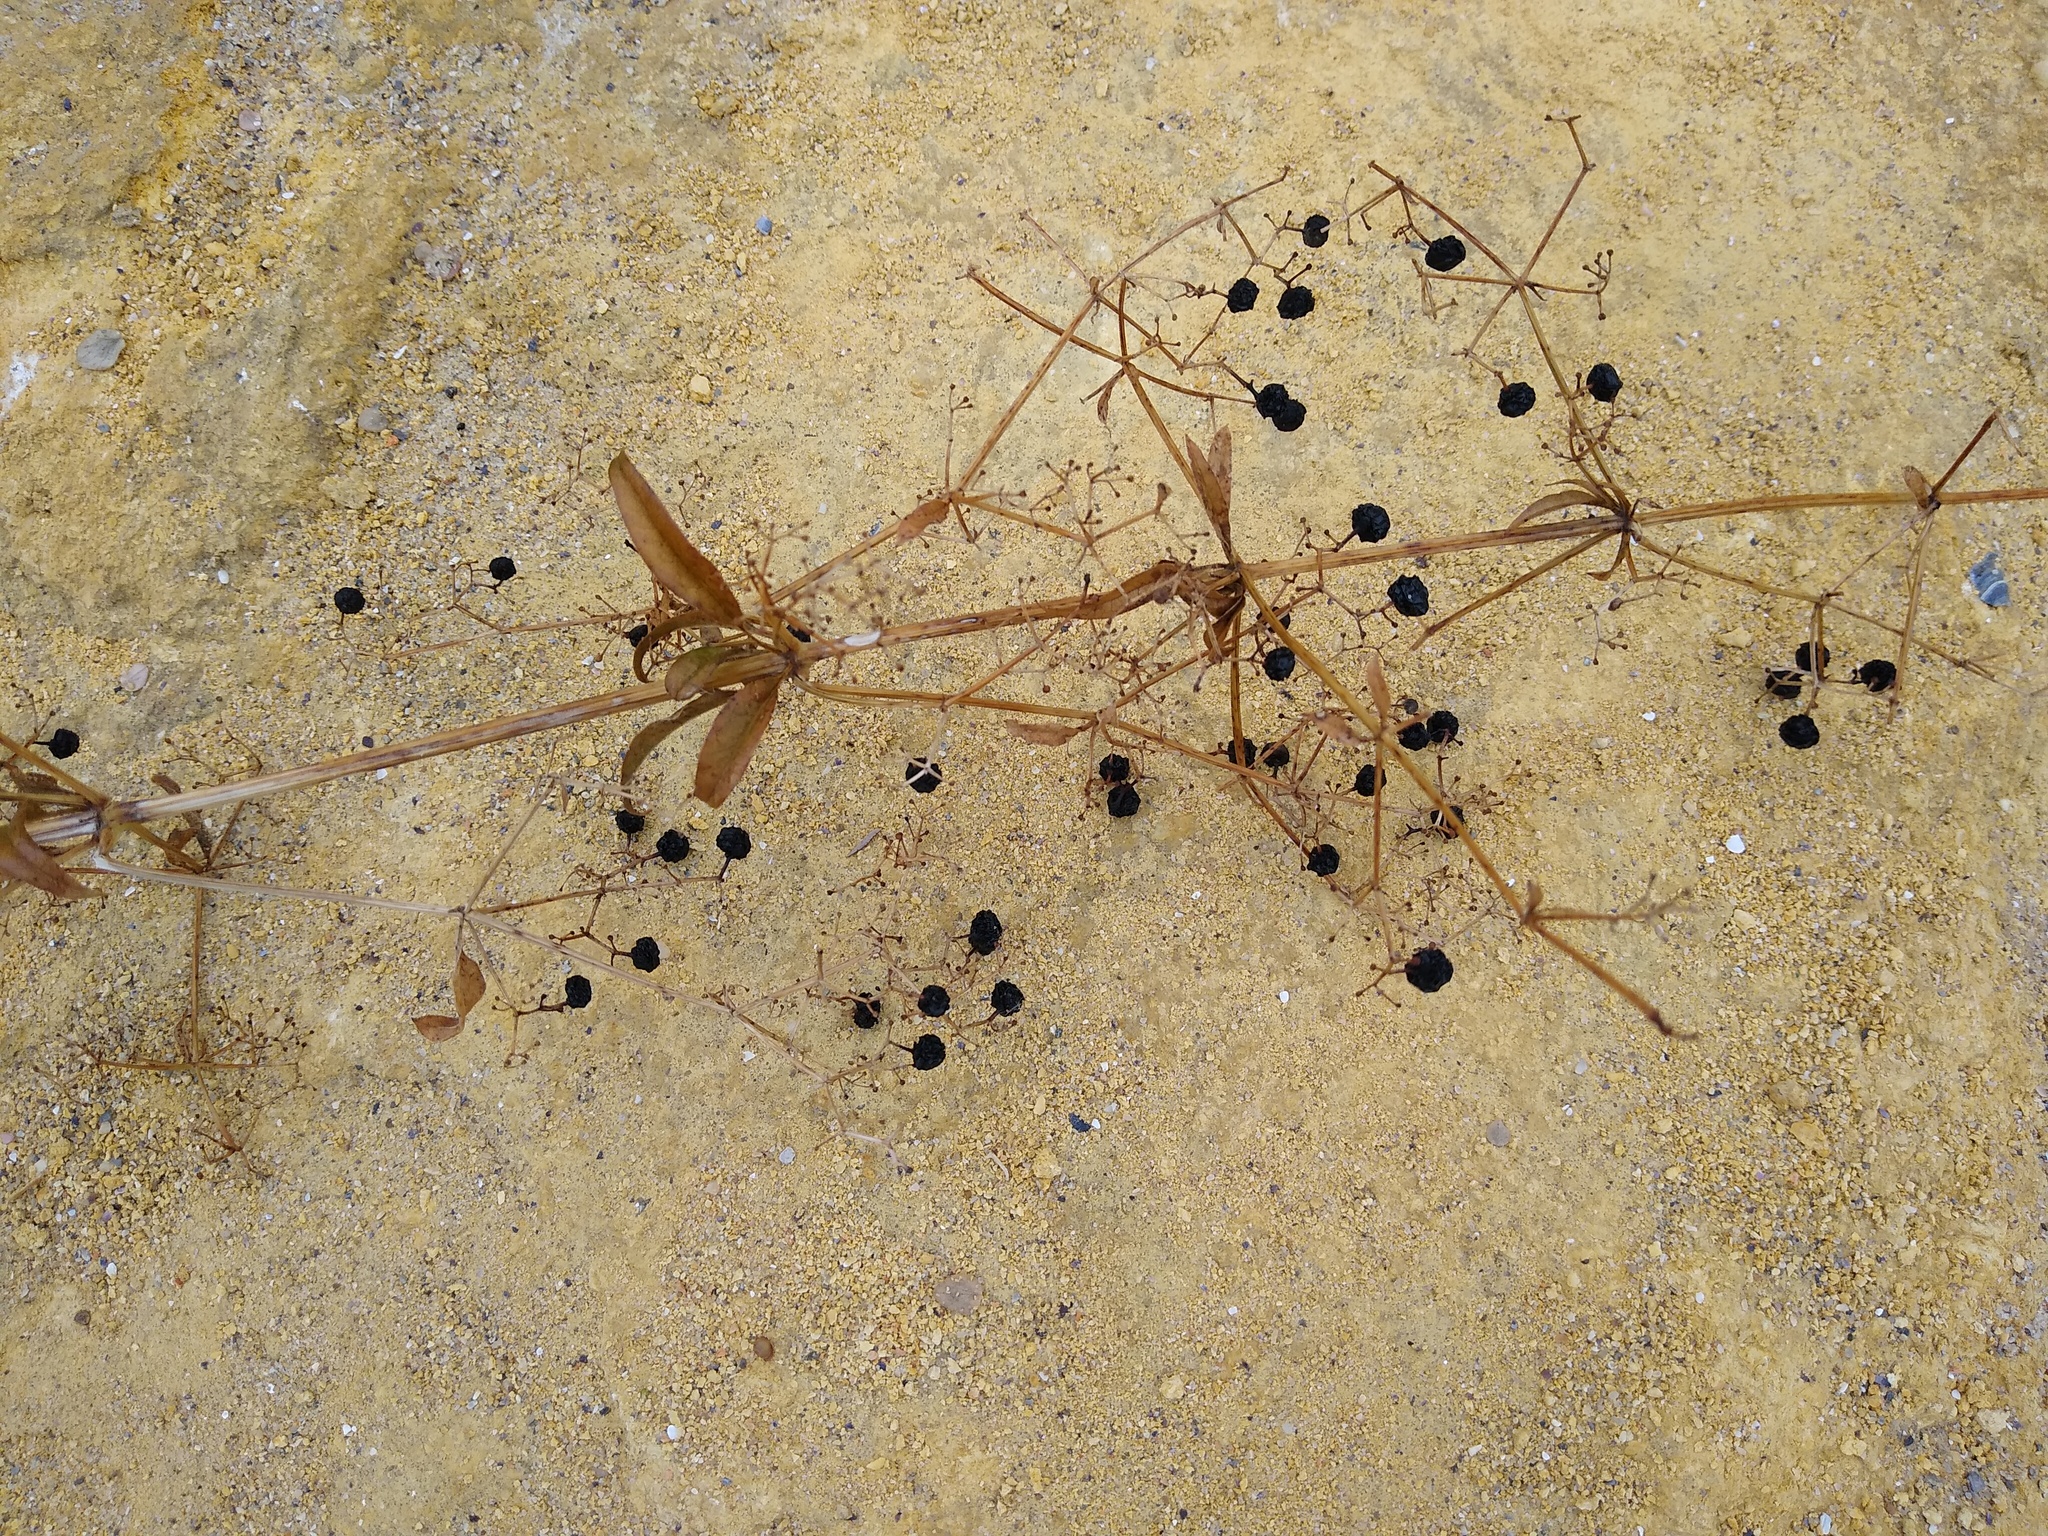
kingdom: Plantae
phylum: Tracheophyta
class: Magnoliopsida
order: Gentianales
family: Rubiaceae
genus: Rubia
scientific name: Rubia tinctorum
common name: Dyer's madder
